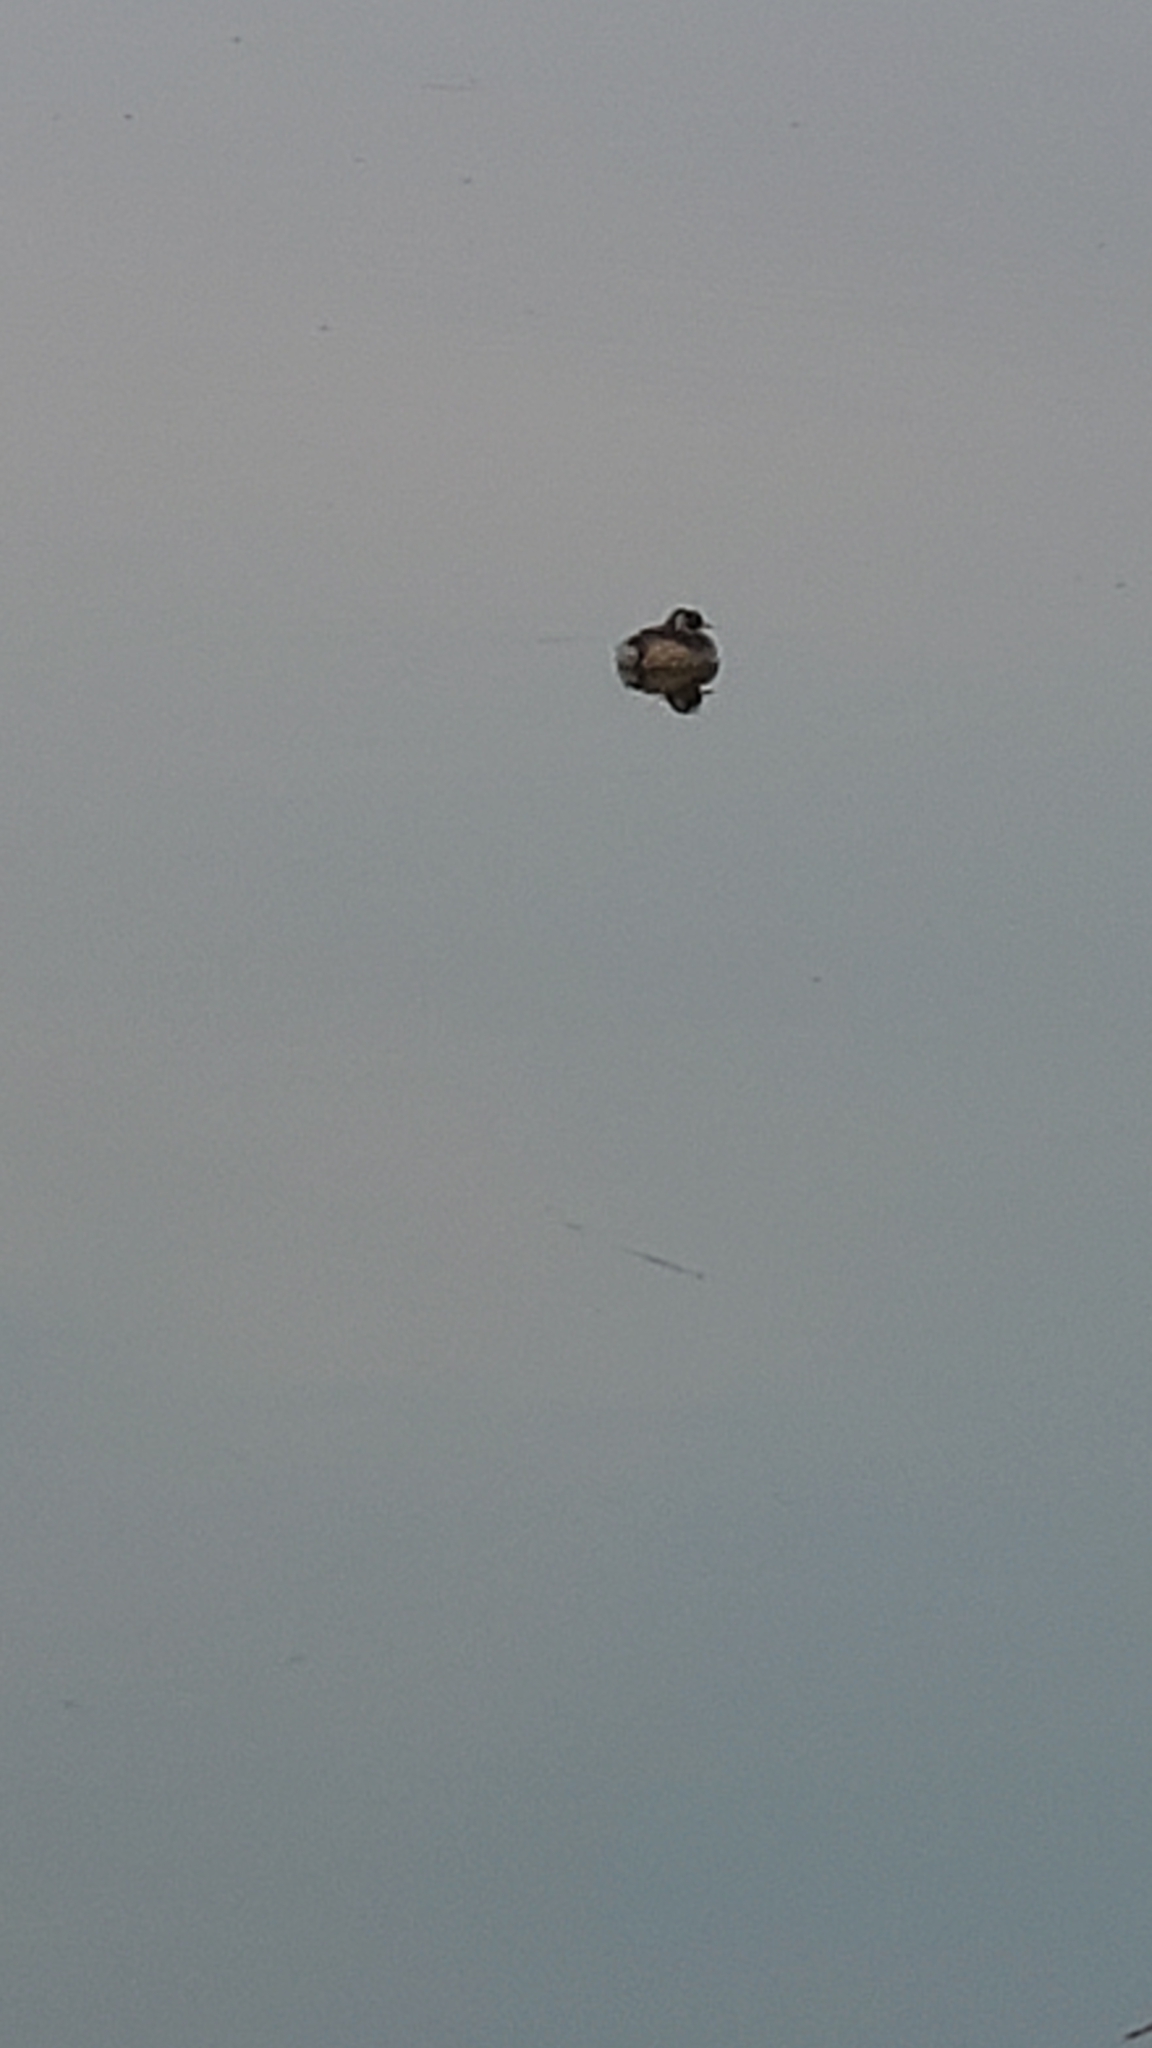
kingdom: Animalia
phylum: Chordata
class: Aves
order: Podicipediformes
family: Podicipedidae
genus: Tachybaptus
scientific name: Tachybaptus ruficollis
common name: Little grebe
